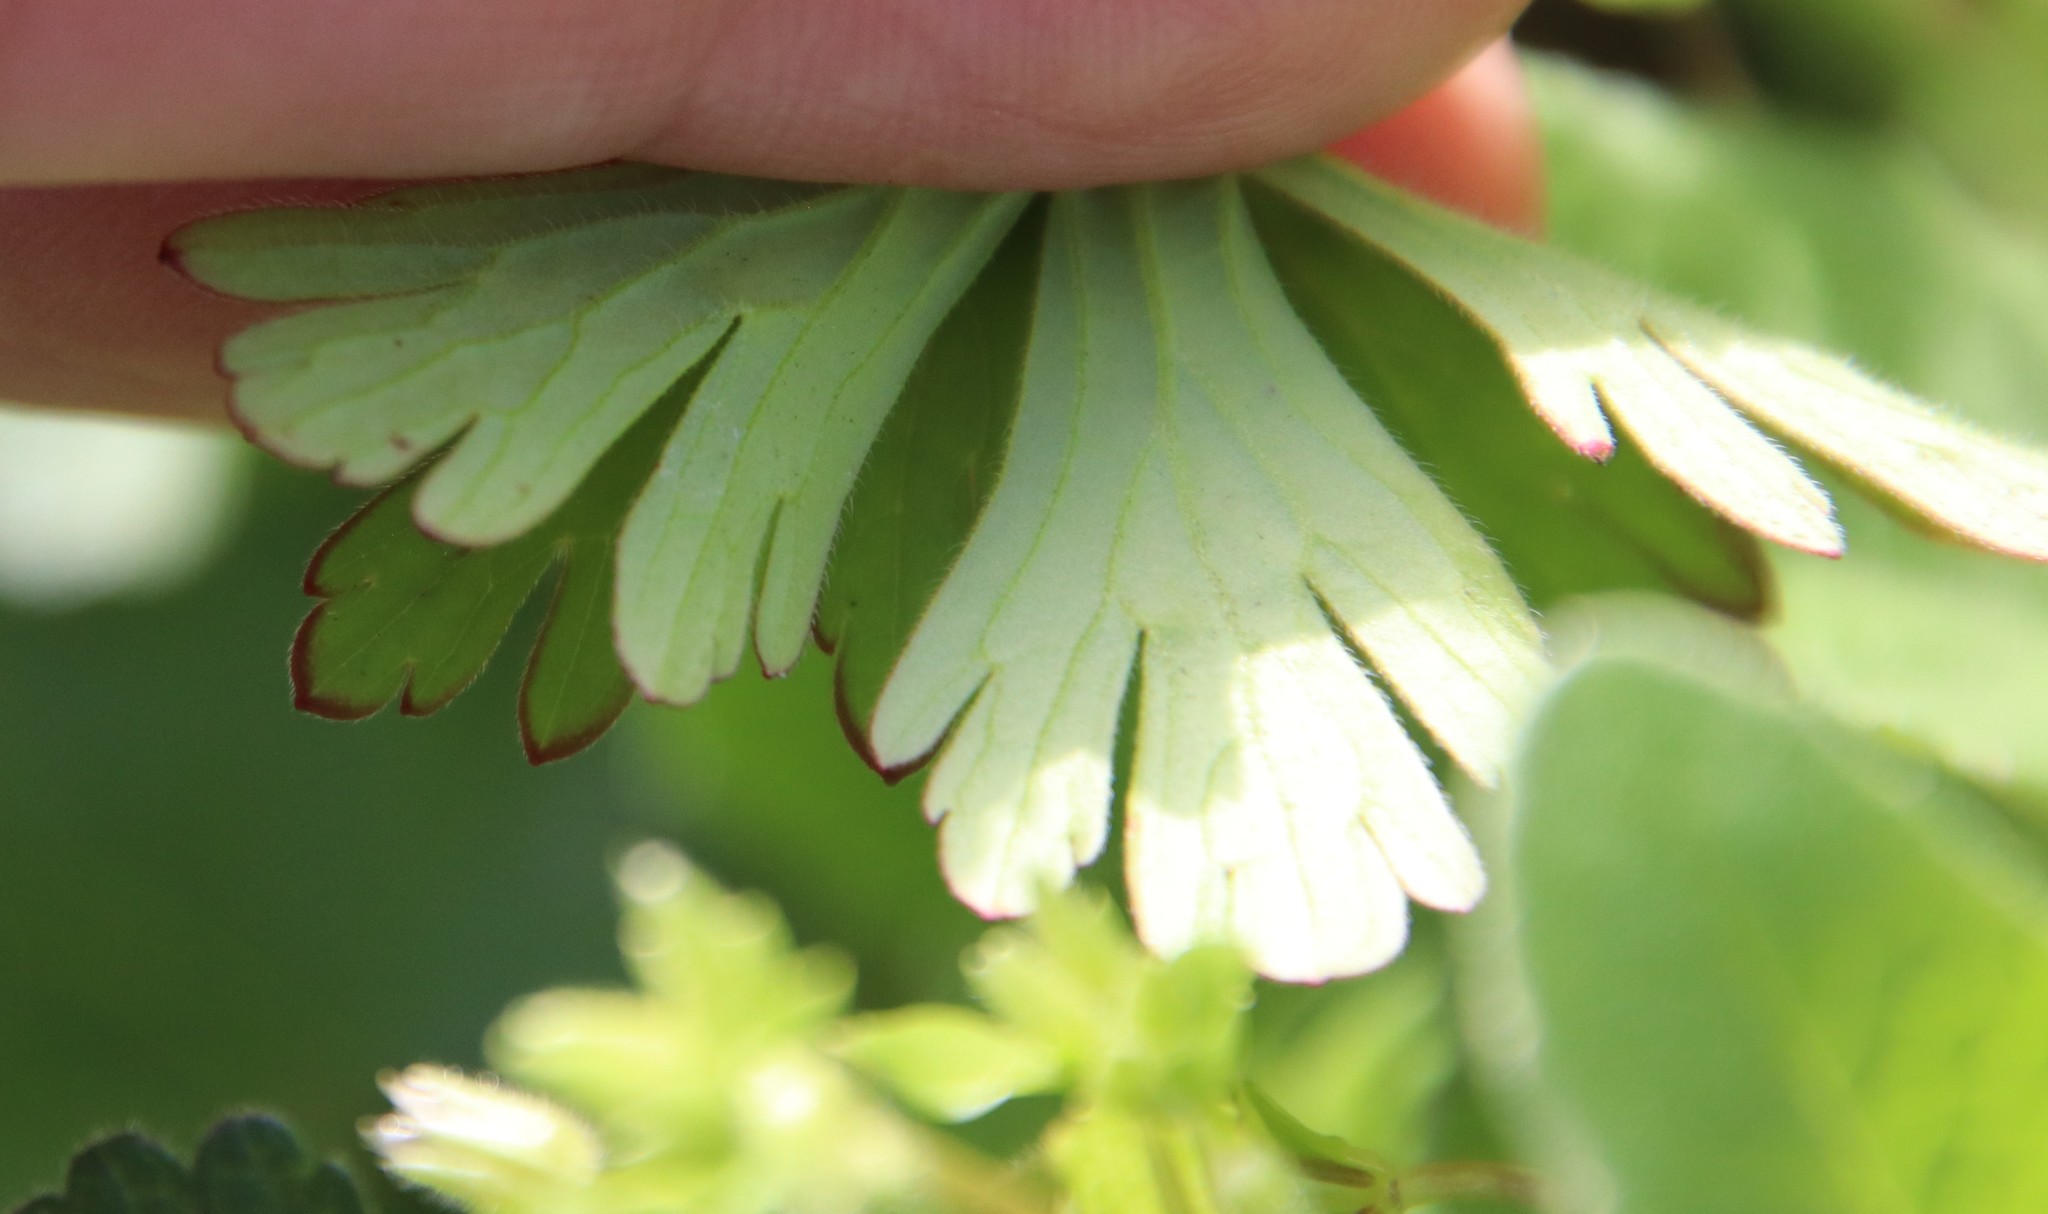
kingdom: Plantae
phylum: Tracheophyta
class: Magnoliopsida
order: Geraniales
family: Geraniaceae
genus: Geranium
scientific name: Geranium carolinianum
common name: Carolina crane's-bill
